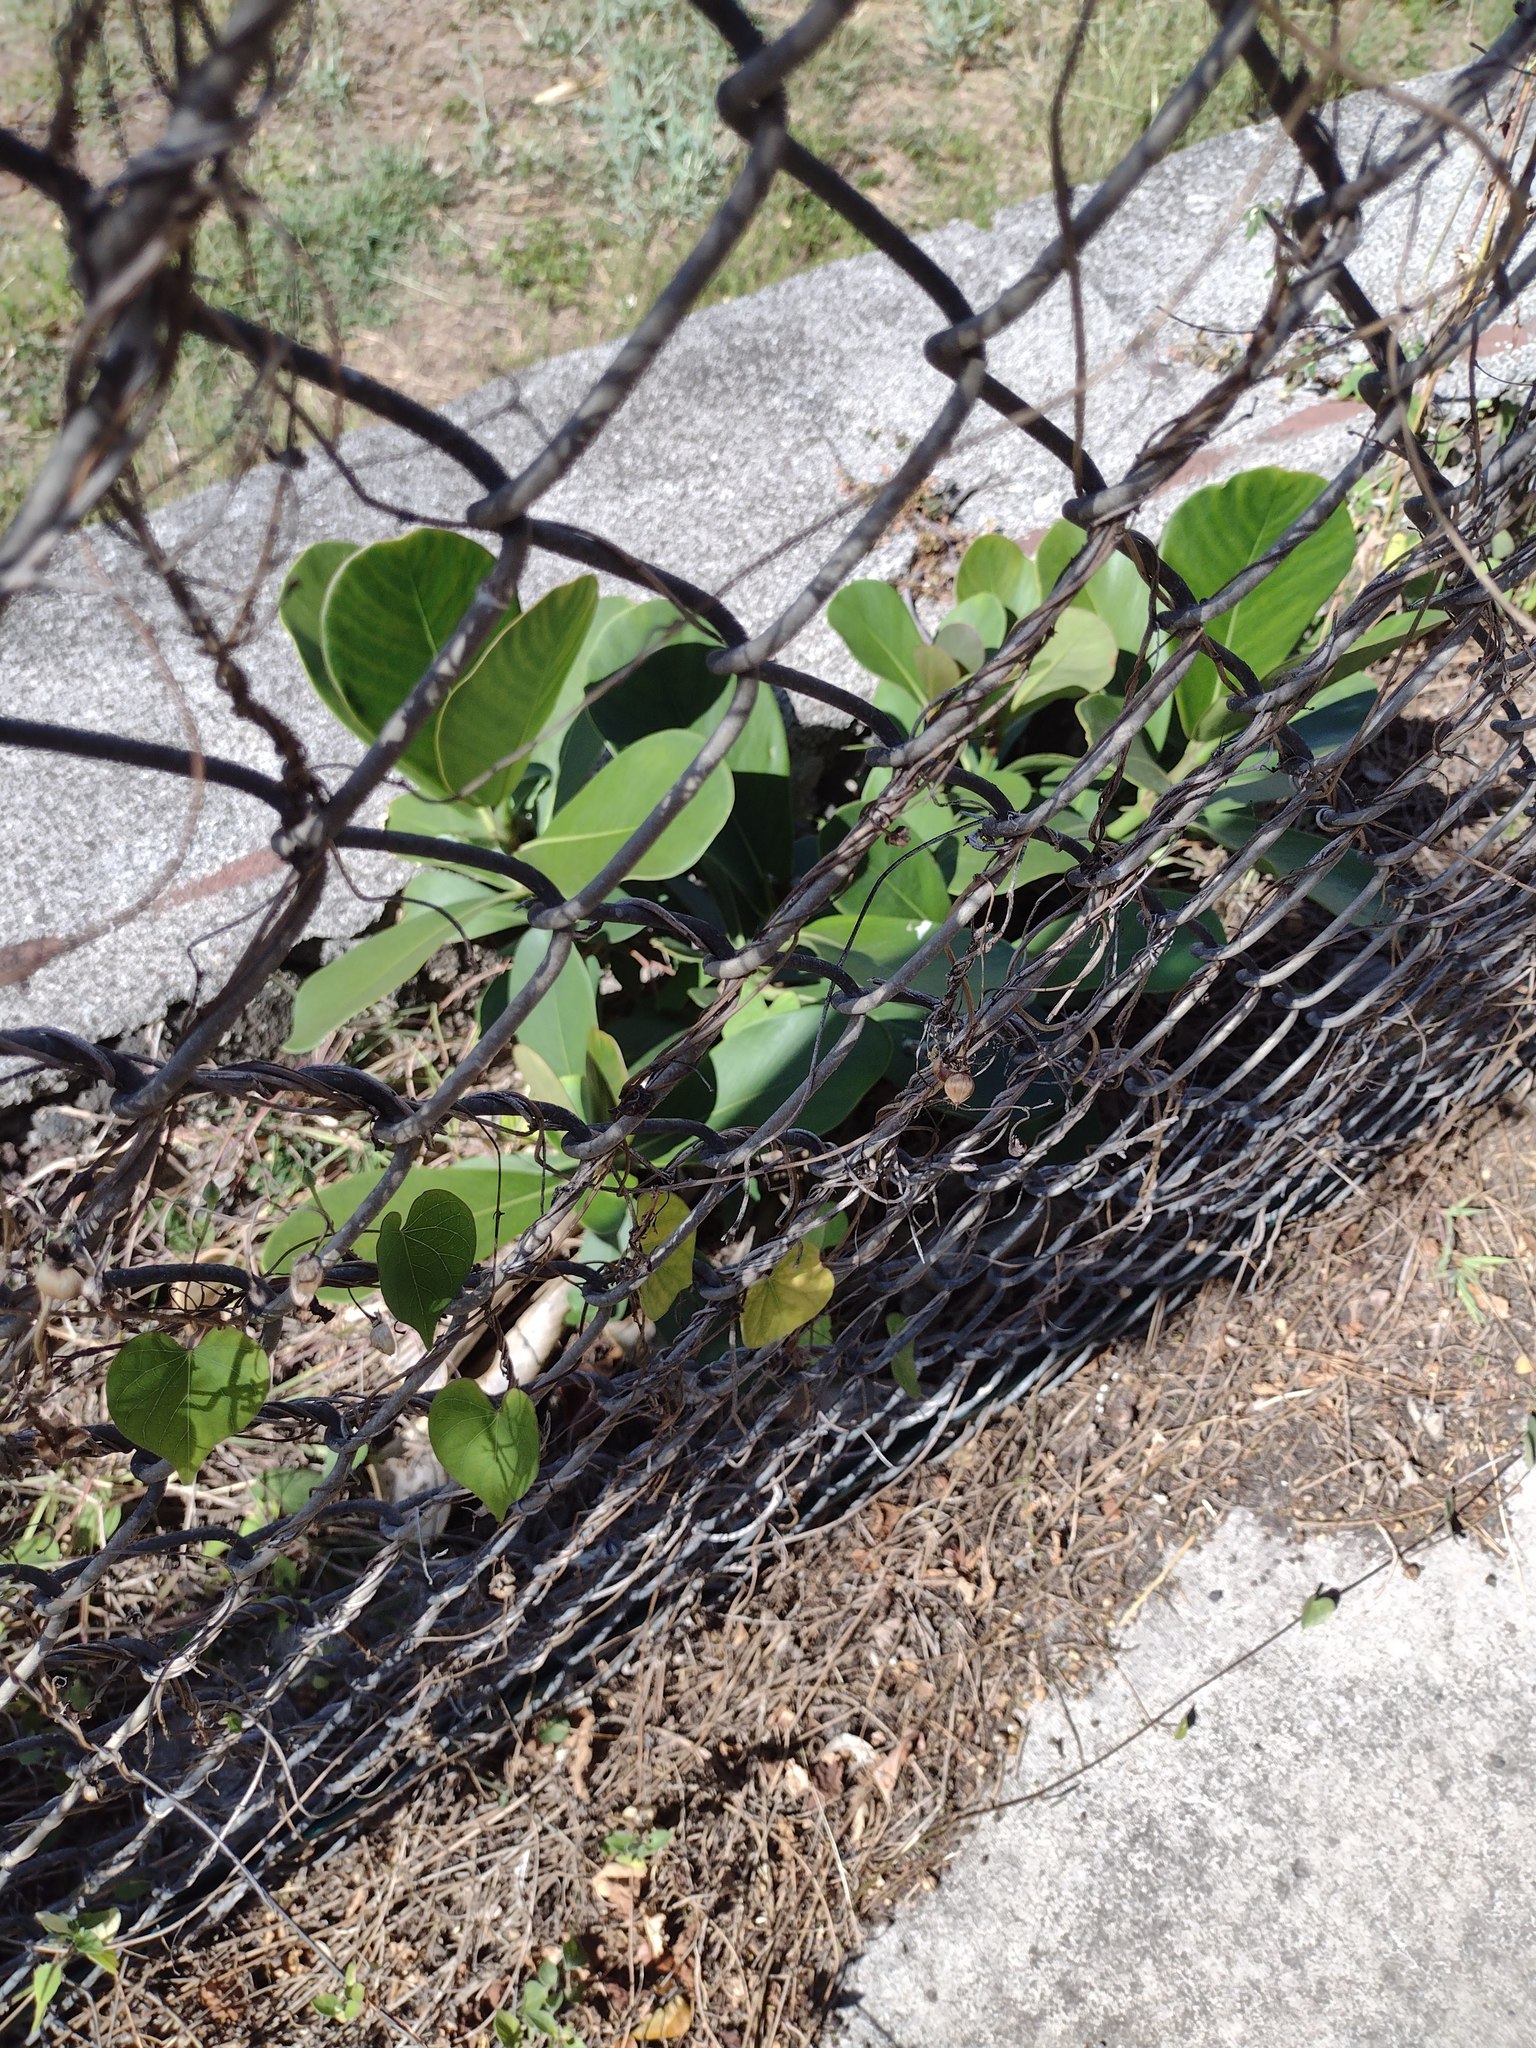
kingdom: Plantae
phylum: Tracheophyta
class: Magnoliopsida
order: Malpighiales
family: Clusiaceae
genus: Clusia
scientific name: Clusia rosea
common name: Scotch attorney
